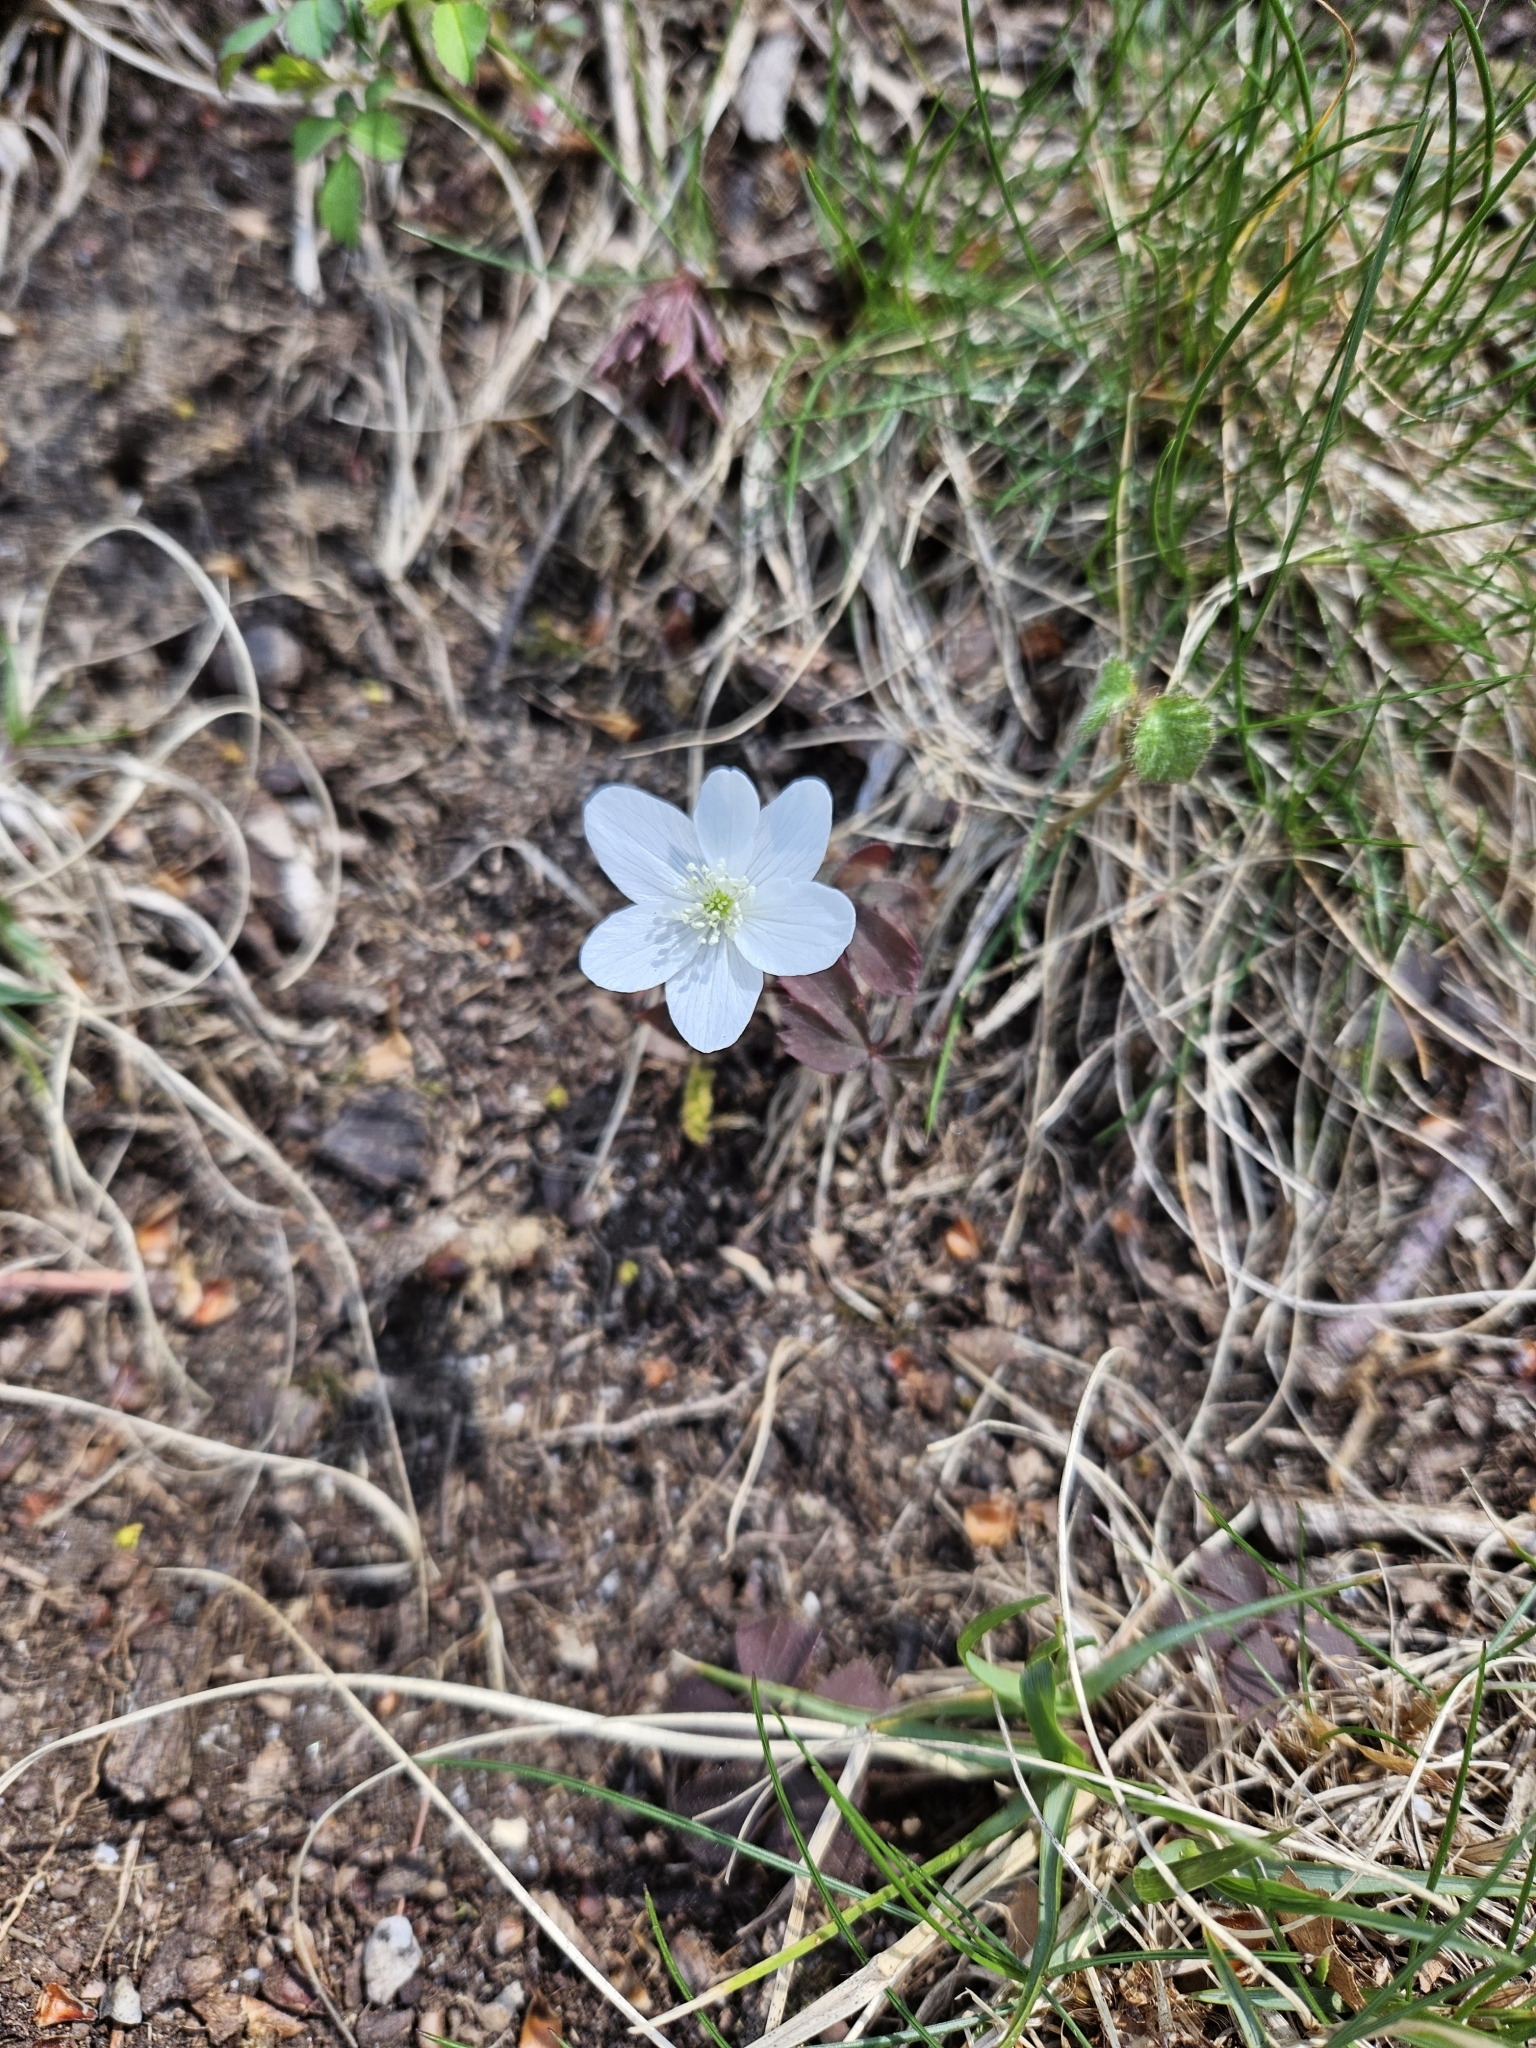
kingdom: Plantae
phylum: Tracheophyta
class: Magnoliopsida
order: Ranunculales
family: Ranunculaceae
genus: Anemone
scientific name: Anemone quinquefolia
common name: Wood anemone
